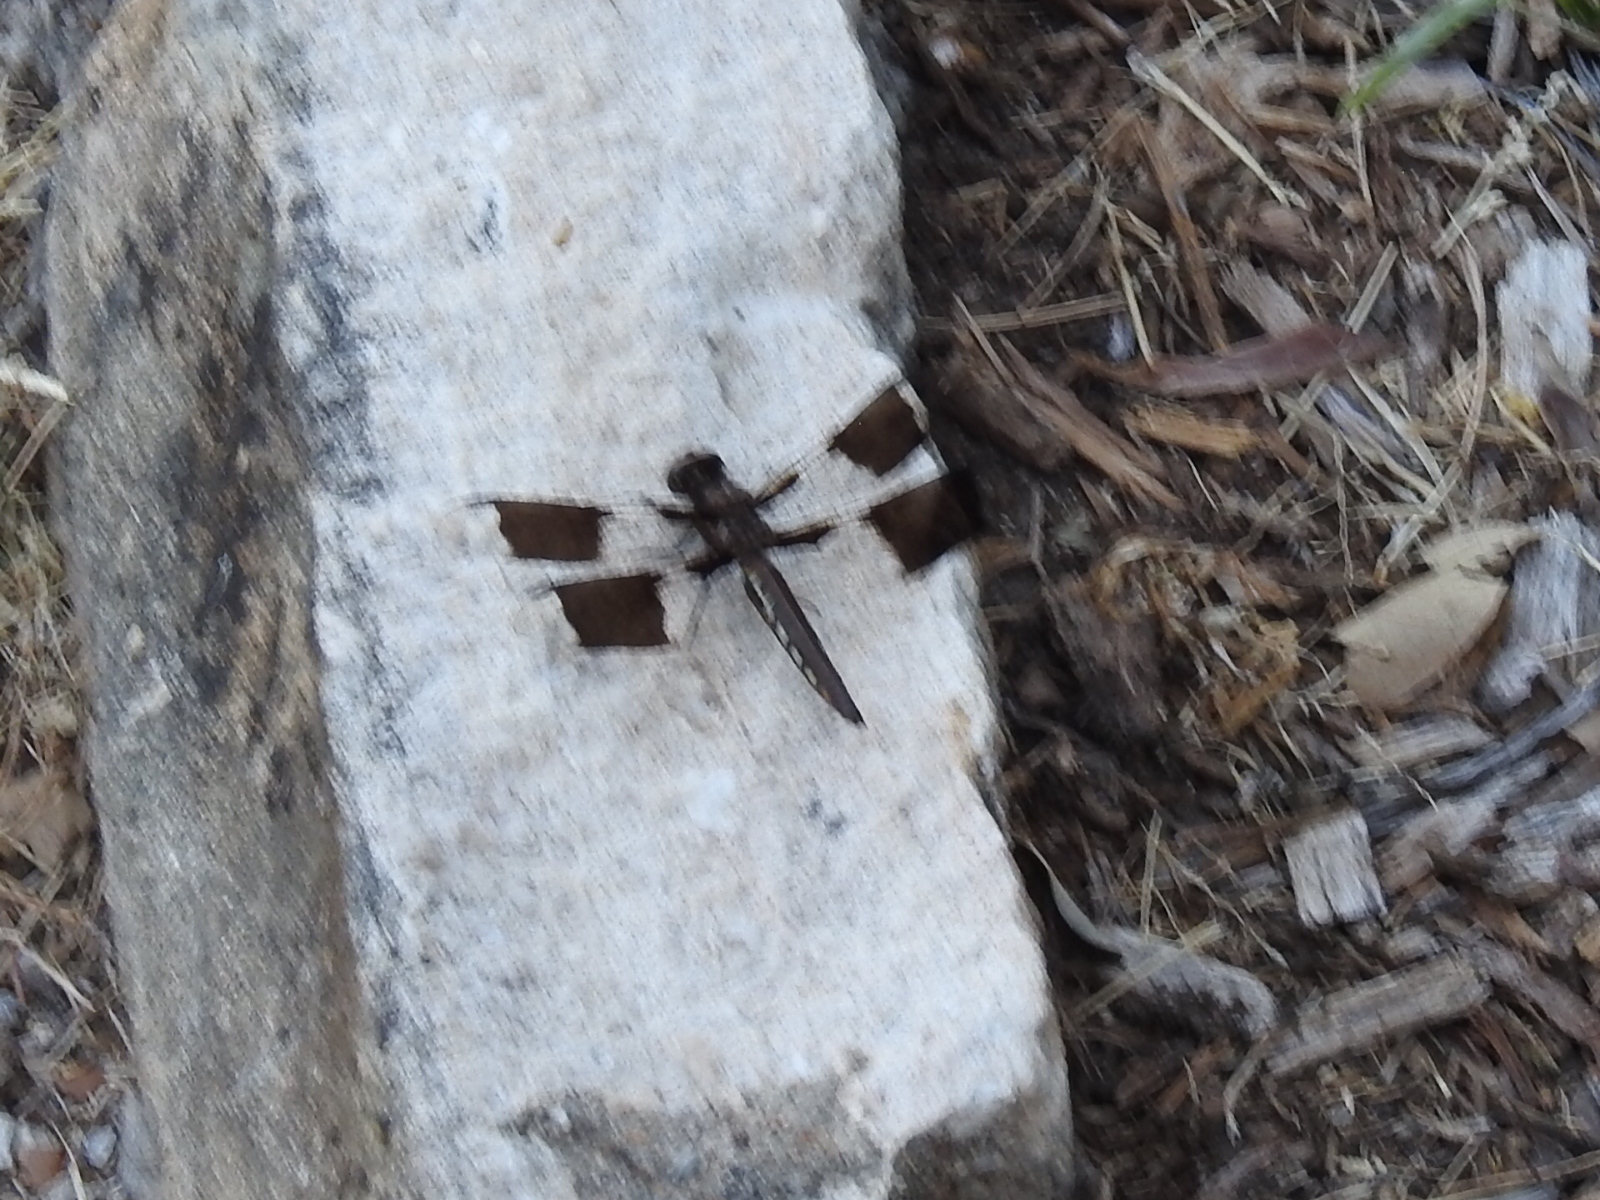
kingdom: Animalia
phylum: Arthropoda
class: Insecta
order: Odonata
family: Libellulidae
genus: Plathemis
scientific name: Plathemis lydia
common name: Common whitetail
